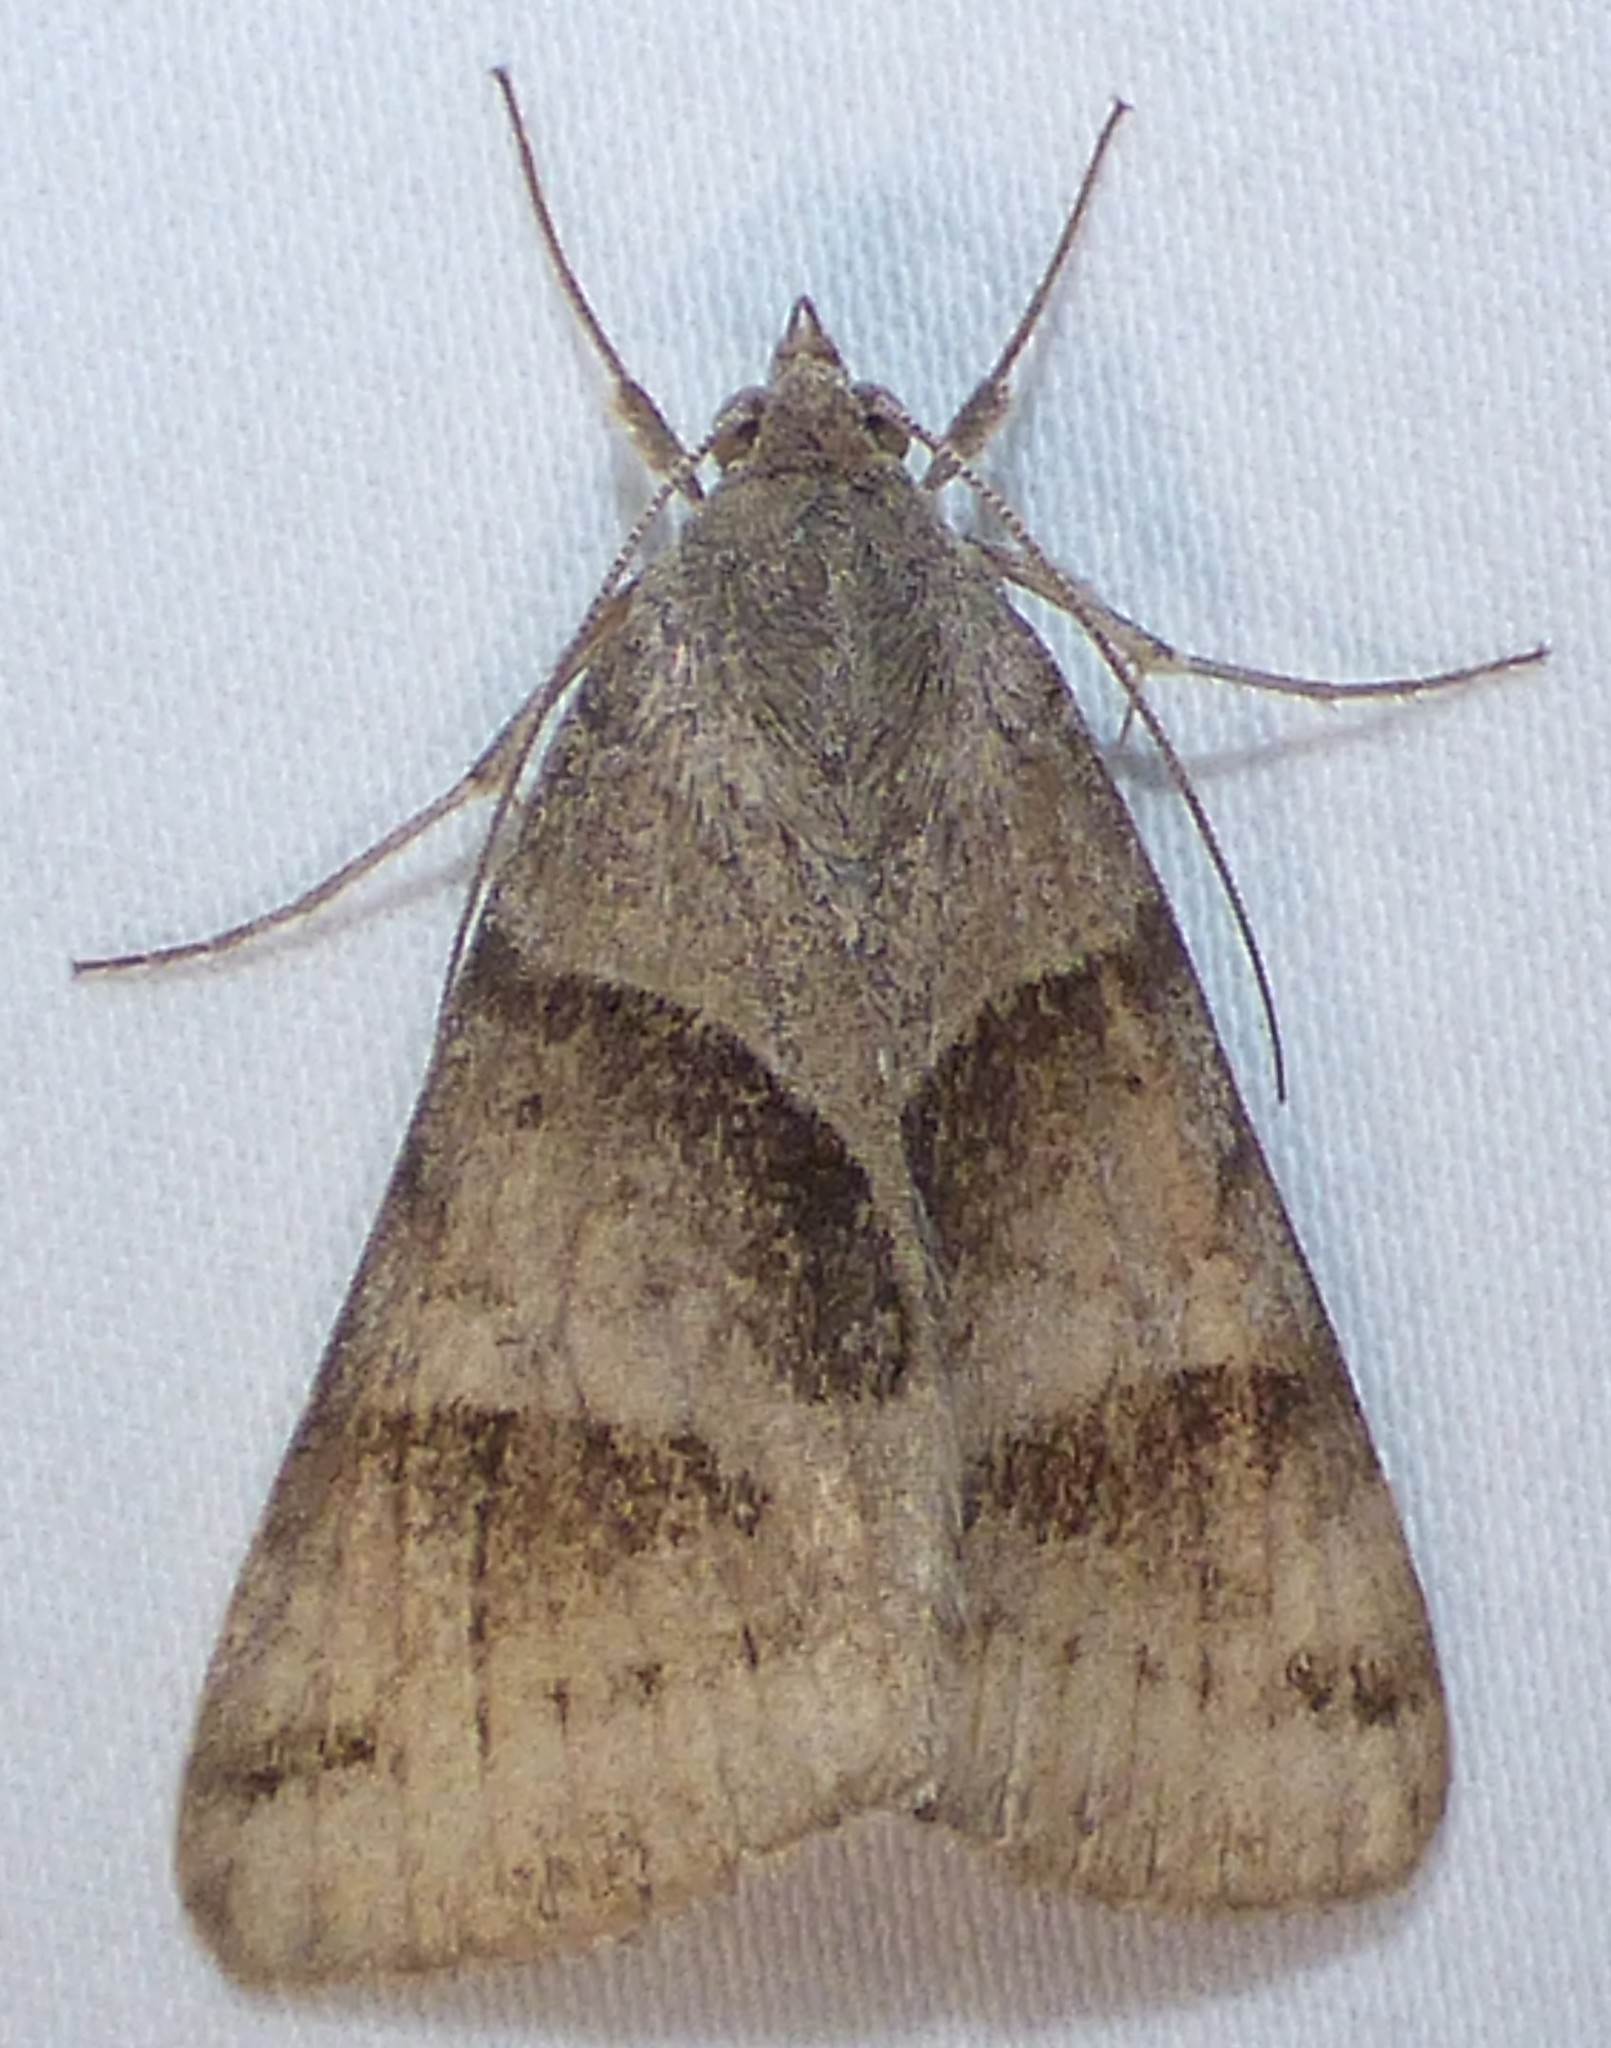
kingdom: Animalia
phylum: Arthropoda
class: Insecta
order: Lepidoptera
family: Erebidae
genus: Caenurgina
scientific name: Caenurgina erechtea
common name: Forage looper moth
